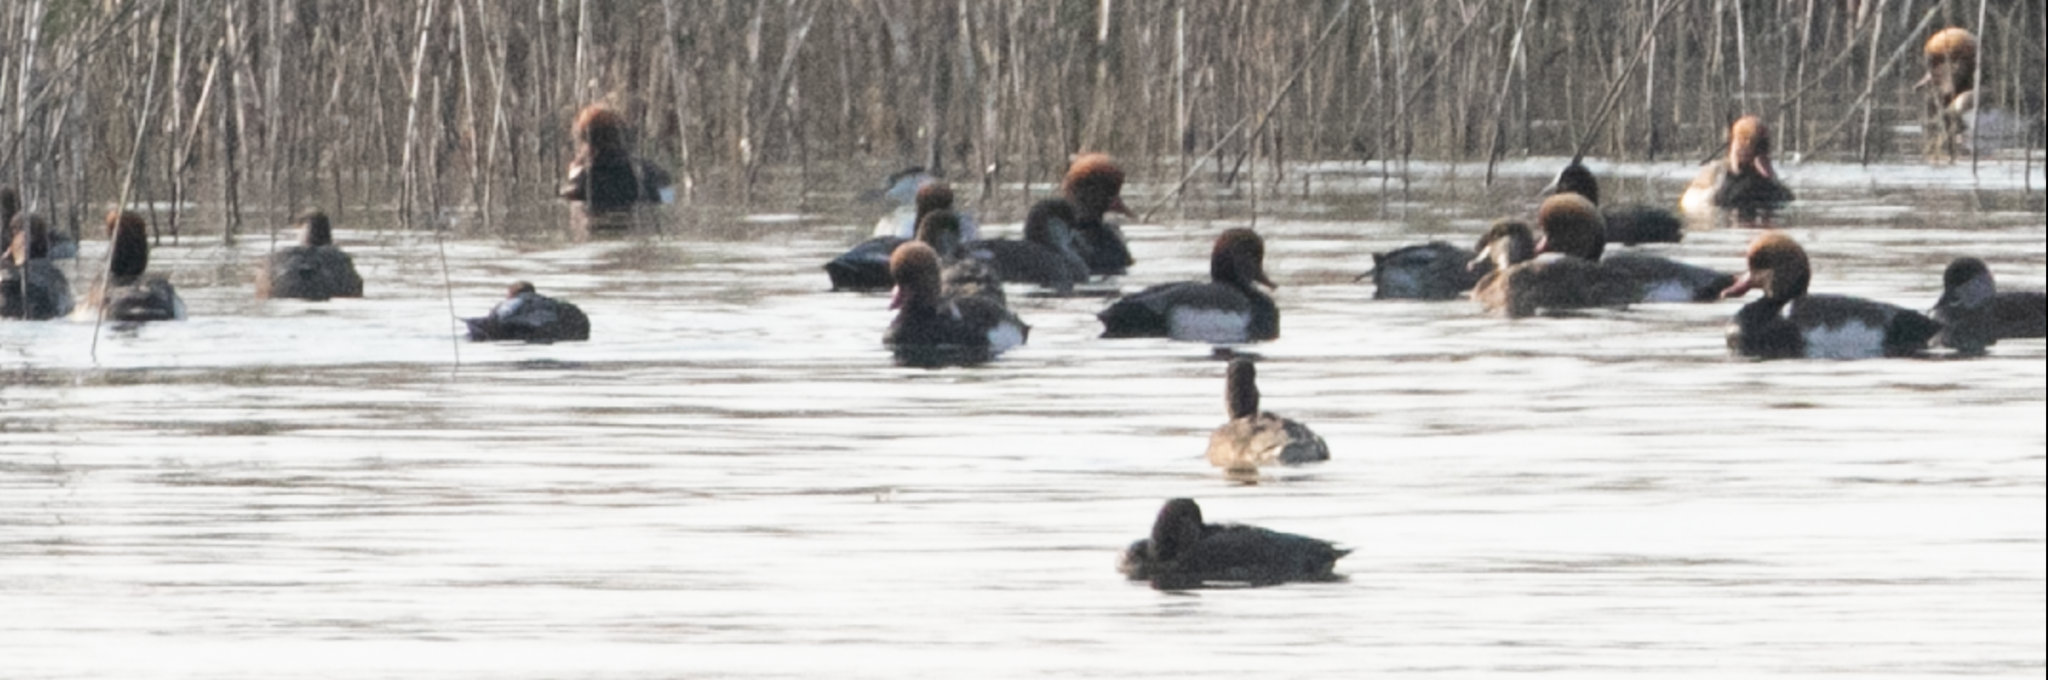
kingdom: Animalia
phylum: Chordata
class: Aves
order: Anseriformes
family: Anatidae
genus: Netta
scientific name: Netta rufina
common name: Red-crested pochard
